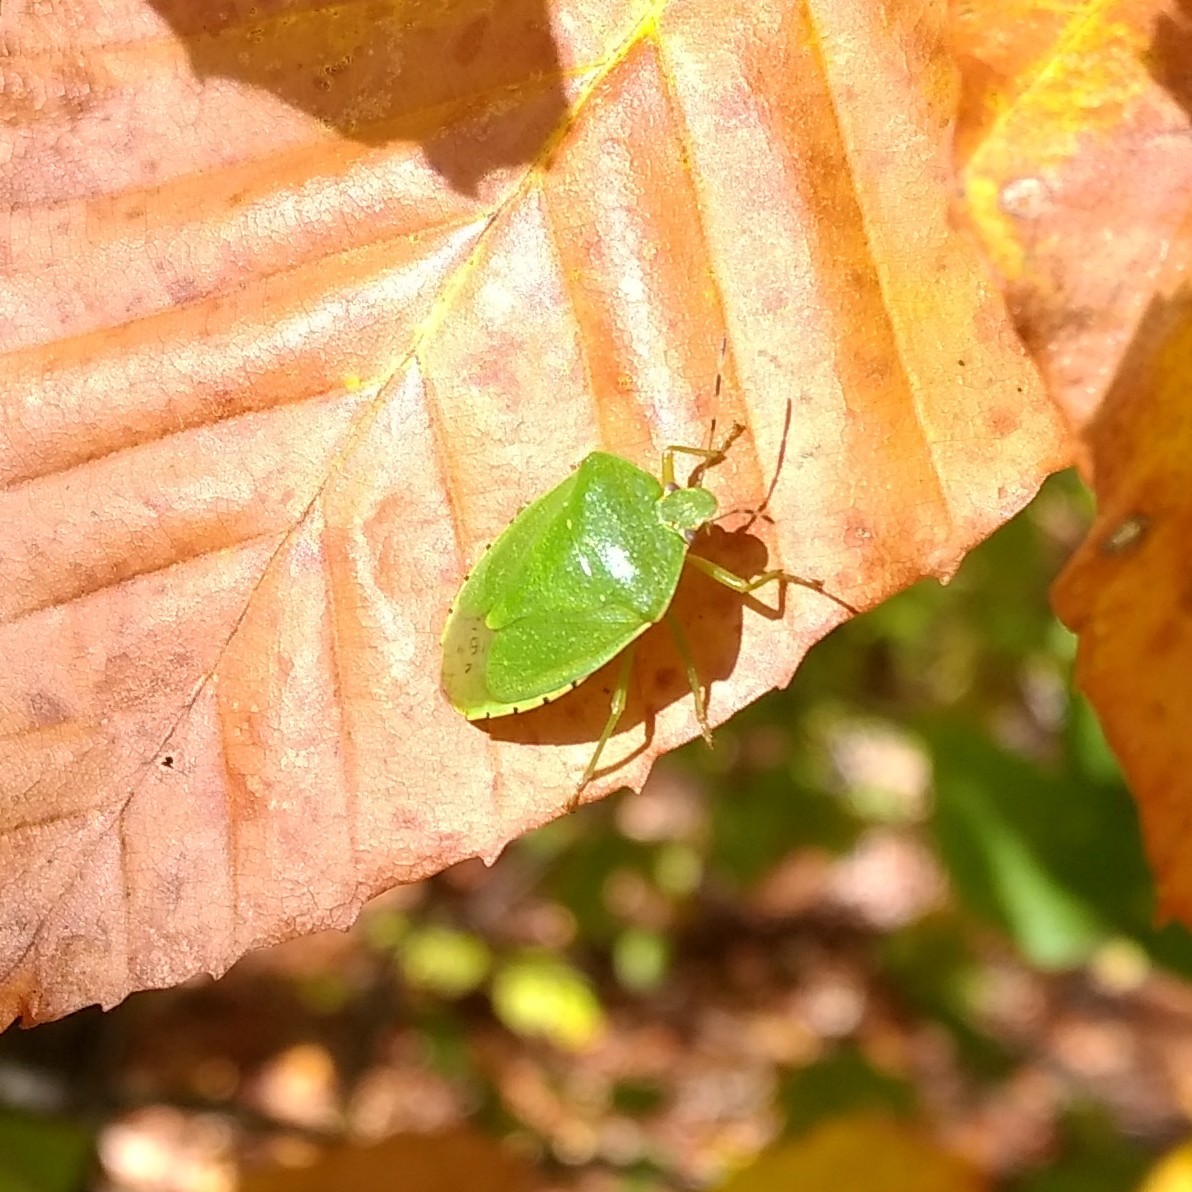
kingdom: Animalia
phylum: Arthropoda
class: Insecta
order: Hemiptera
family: Pentatomidae
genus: Chinavia
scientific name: Chinavia hilaris
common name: Green stink bug
